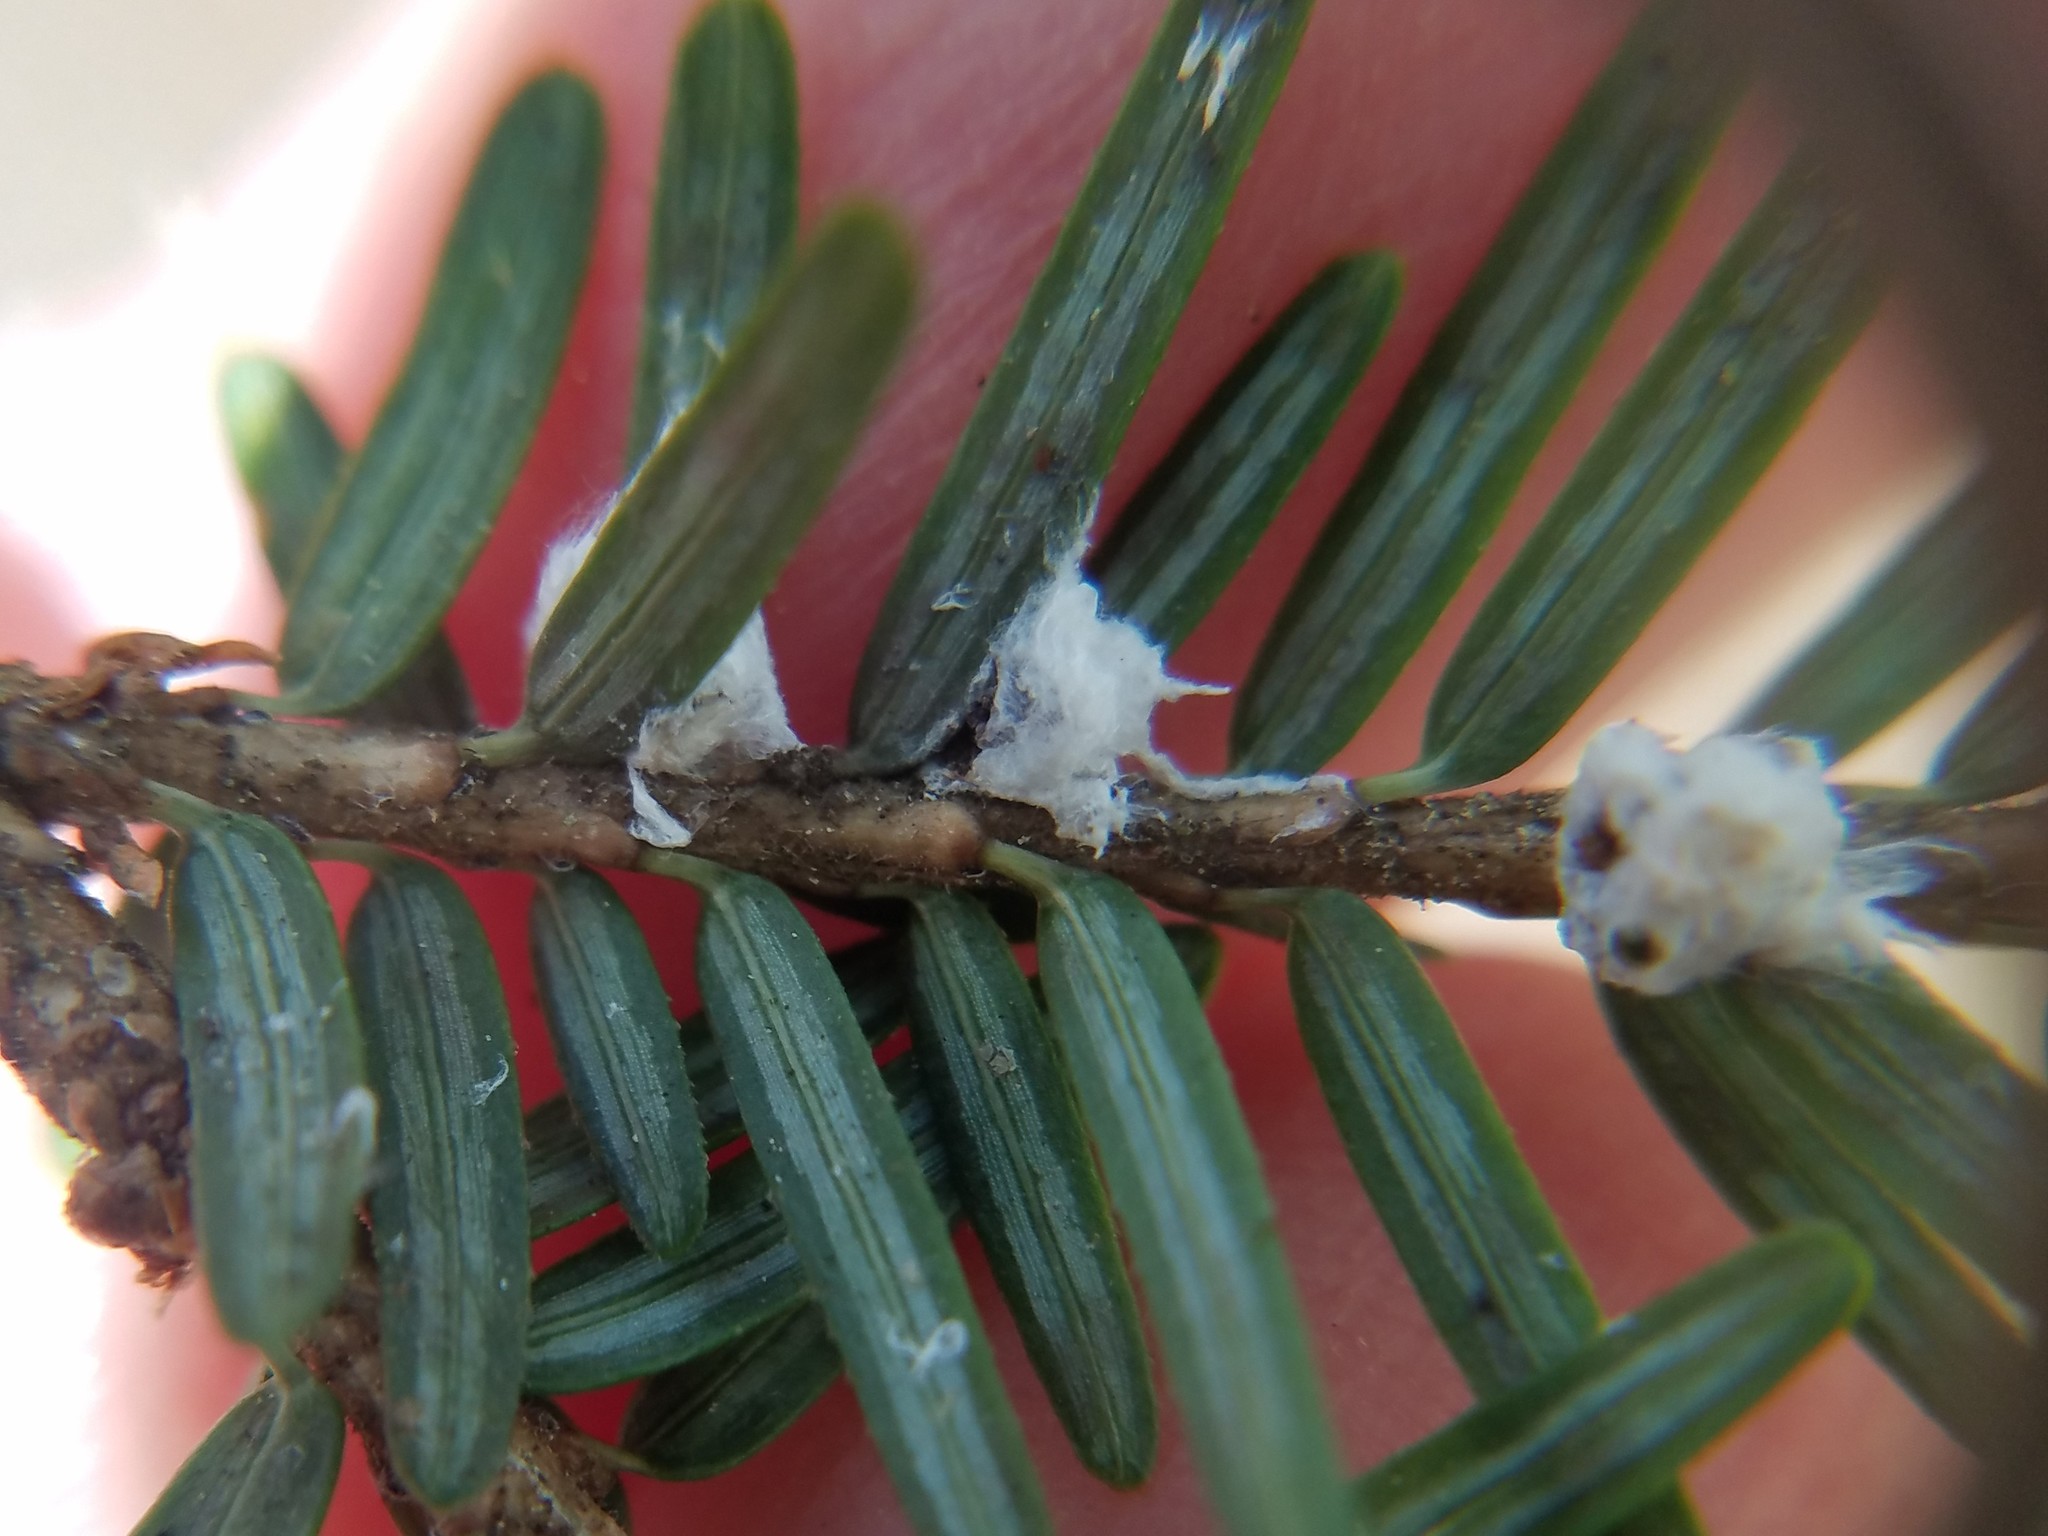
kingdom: Animalia
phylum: Arthropoda
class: Insecta
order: Hemiptera
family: Adelgidae
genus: Adelges
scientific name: Adelges tsugae
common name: Hemlock woolly adelgid
